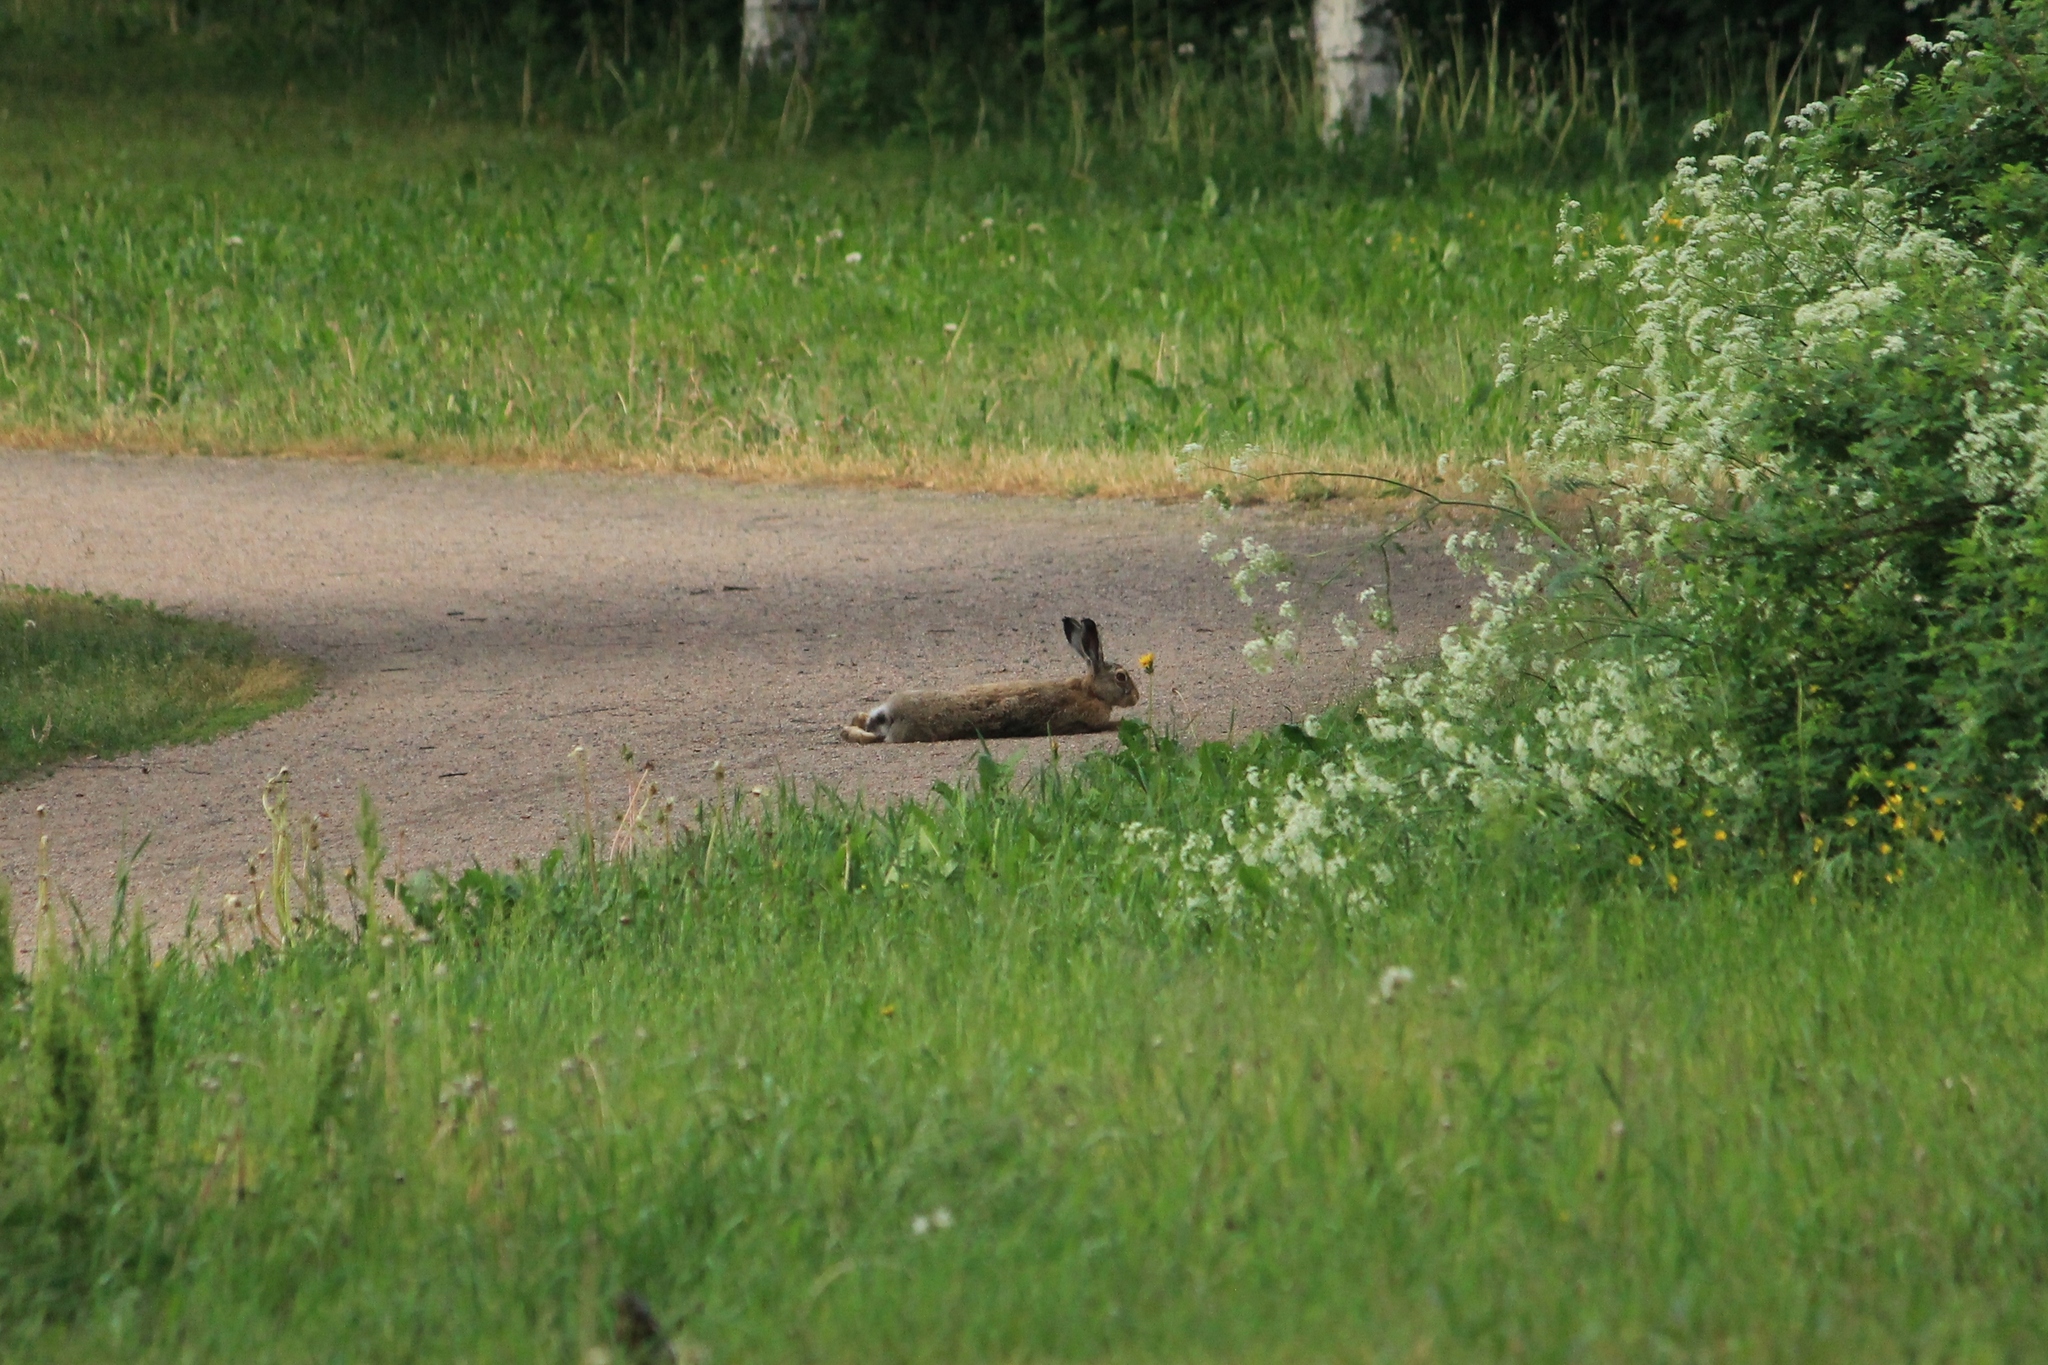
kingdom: Animalia
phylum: Chordata
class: Mammalia
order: Lagomorpha
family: Leporidae
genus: Lepus
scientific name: Lepus europaeus
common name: European hare
